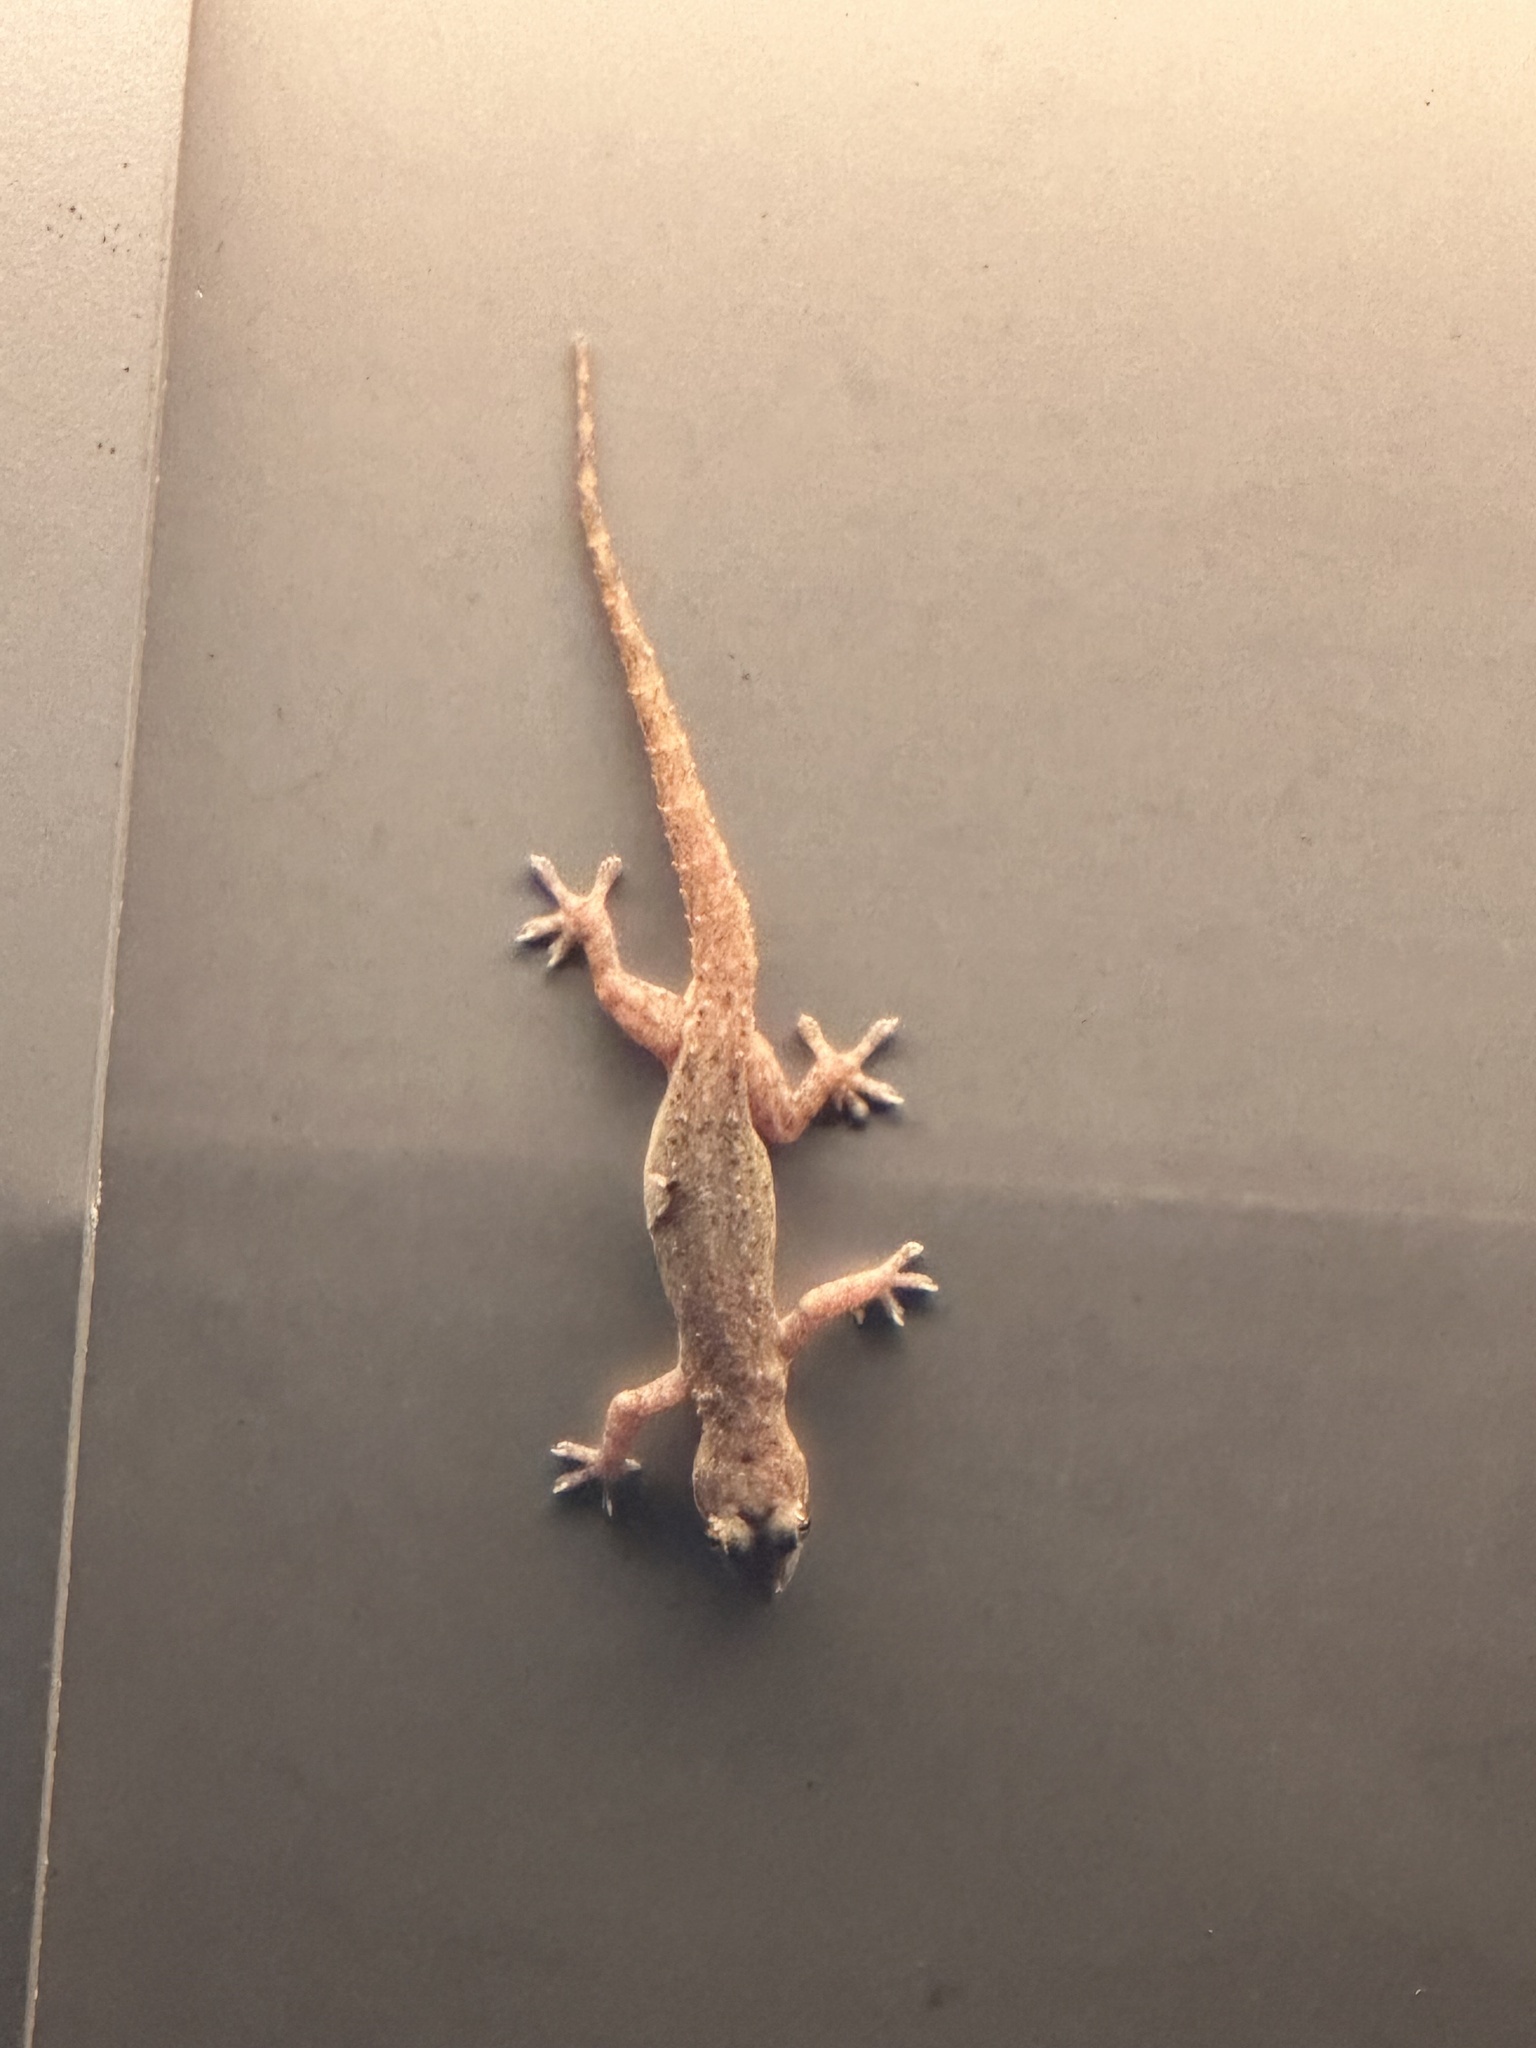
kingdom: Animalia
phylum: Chordata
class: Squamata
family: Gekkonidae
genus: Hemidactylus
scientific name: Hemidactylus frenatus
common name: Common house gecko
